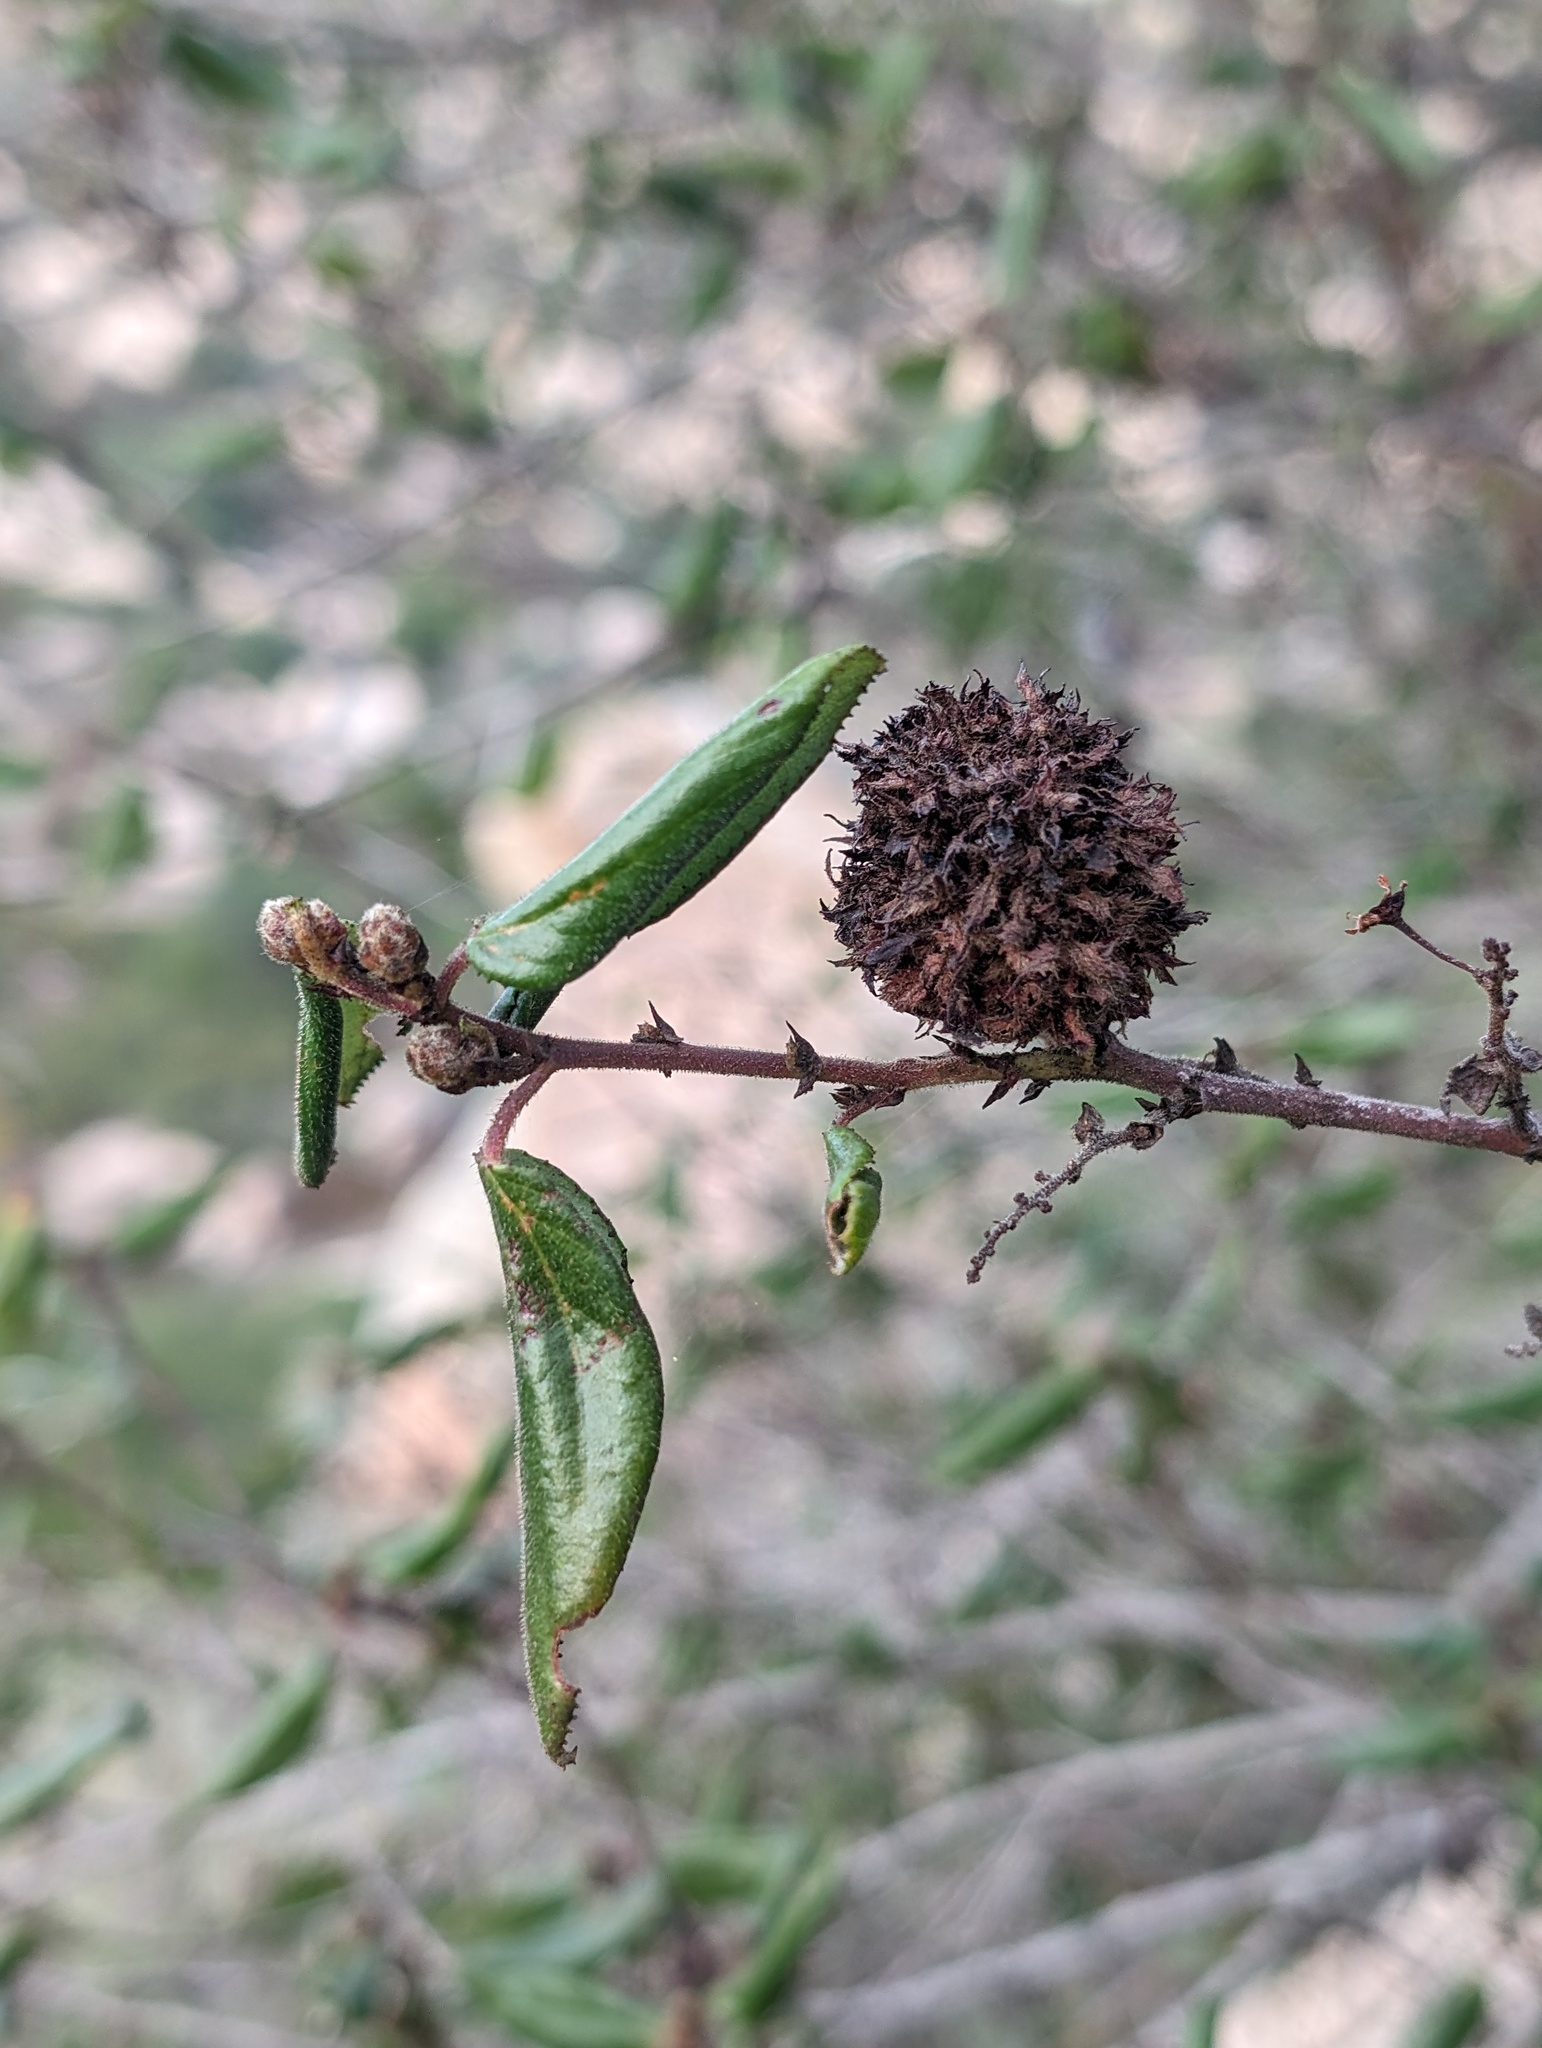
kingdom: Animalia
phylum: Arthropoda
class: Insecta
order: Diptera
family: Cecidomyiidae
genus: Asphondylia
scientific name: Asphondylia ceanothi
